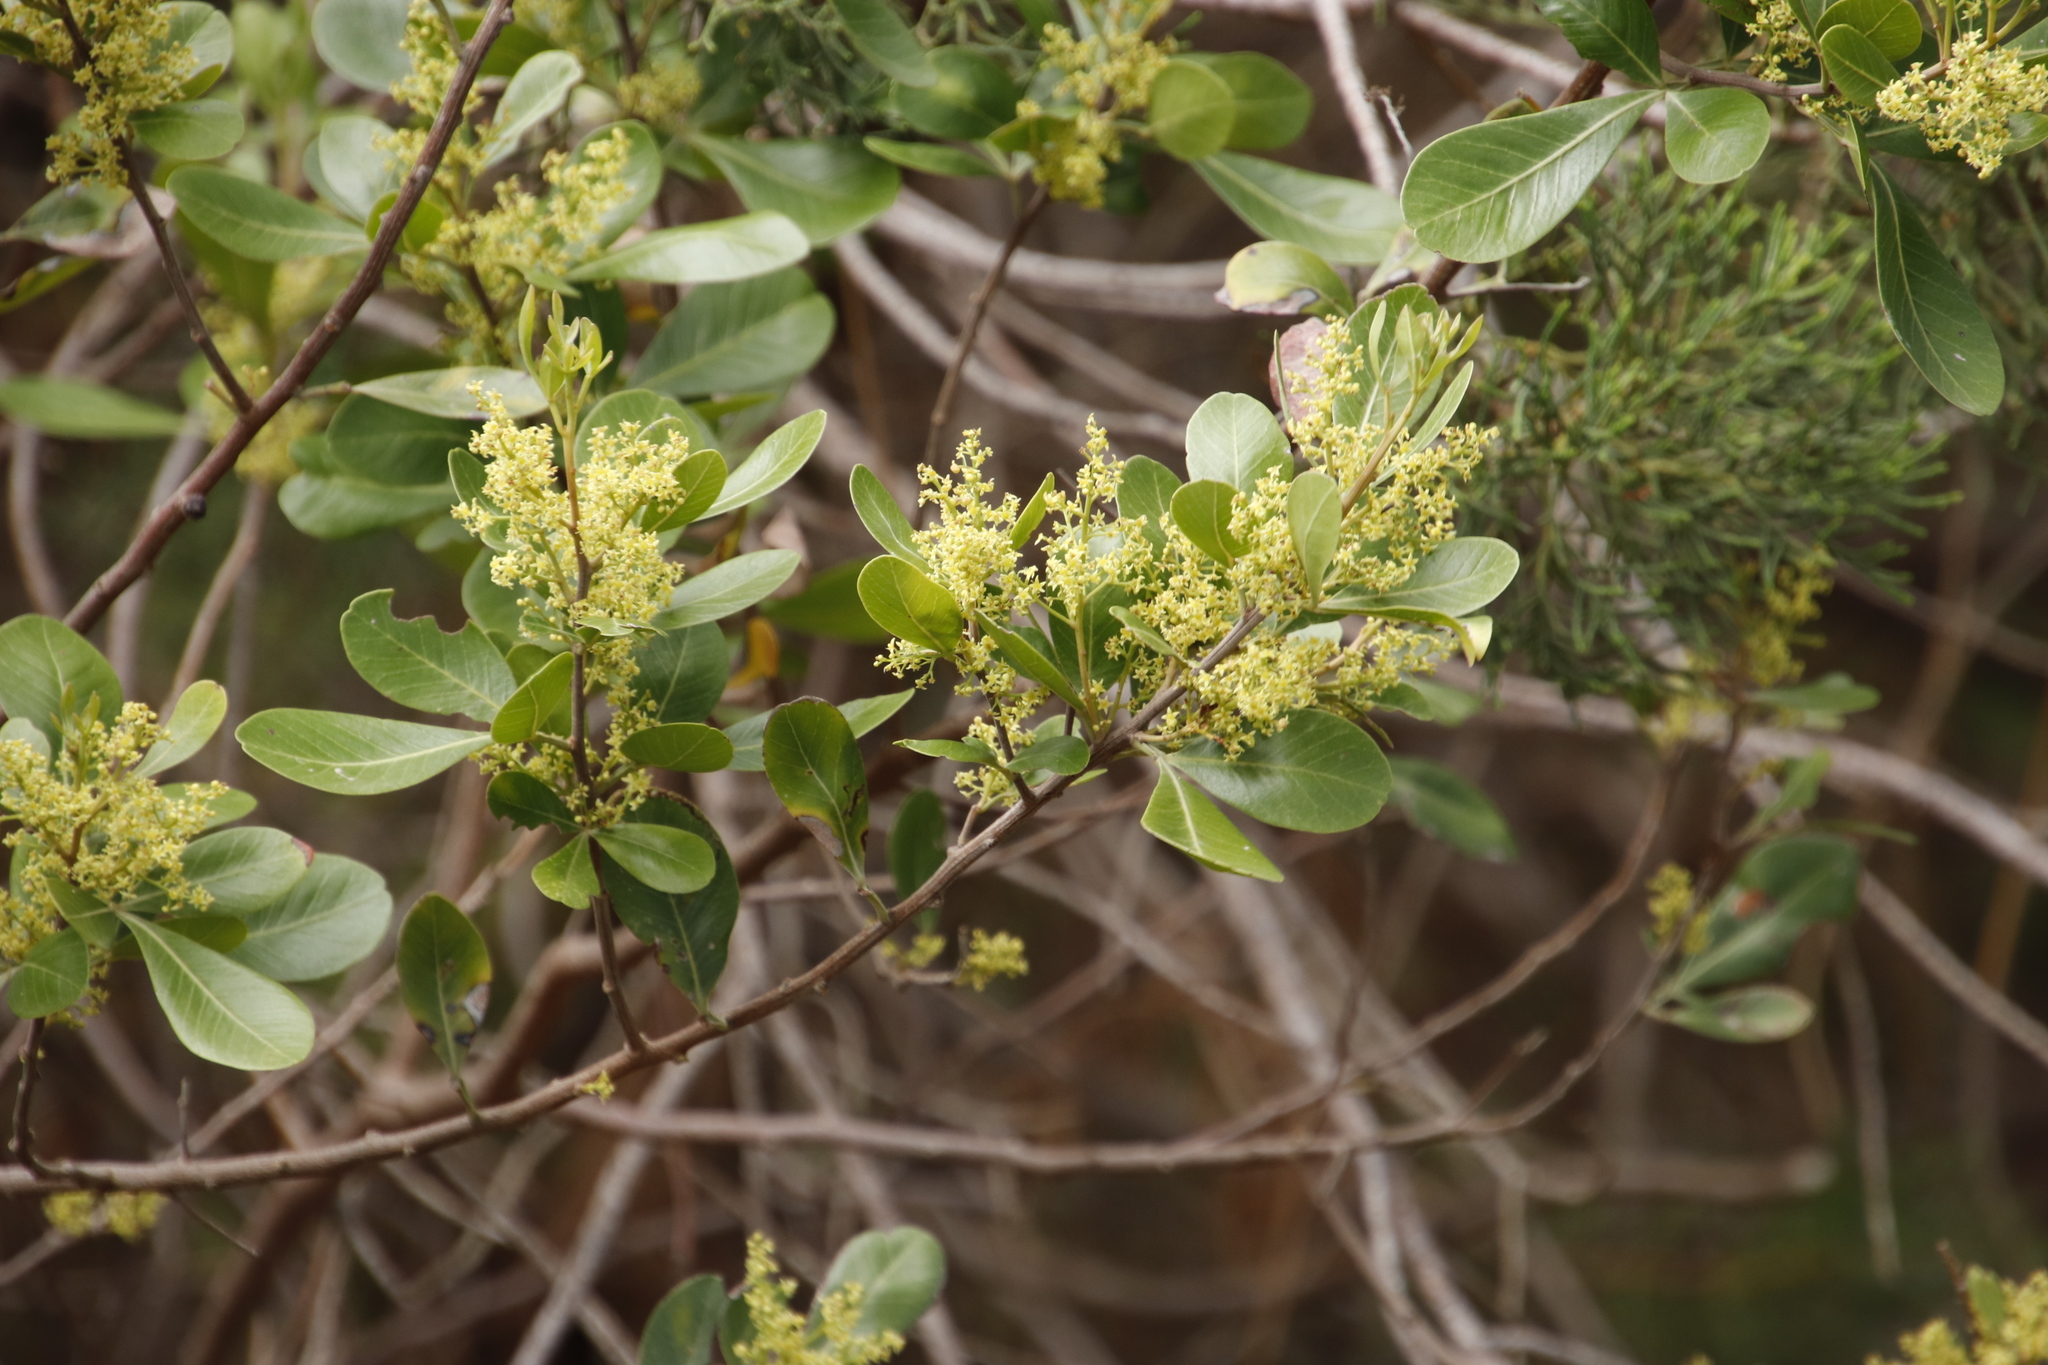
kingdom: Plantae
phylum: Tracheophyta
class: Magnoliopsida
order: Sapindales
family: Anacardiaceae
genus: Searsia
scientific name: Searsia lucida
